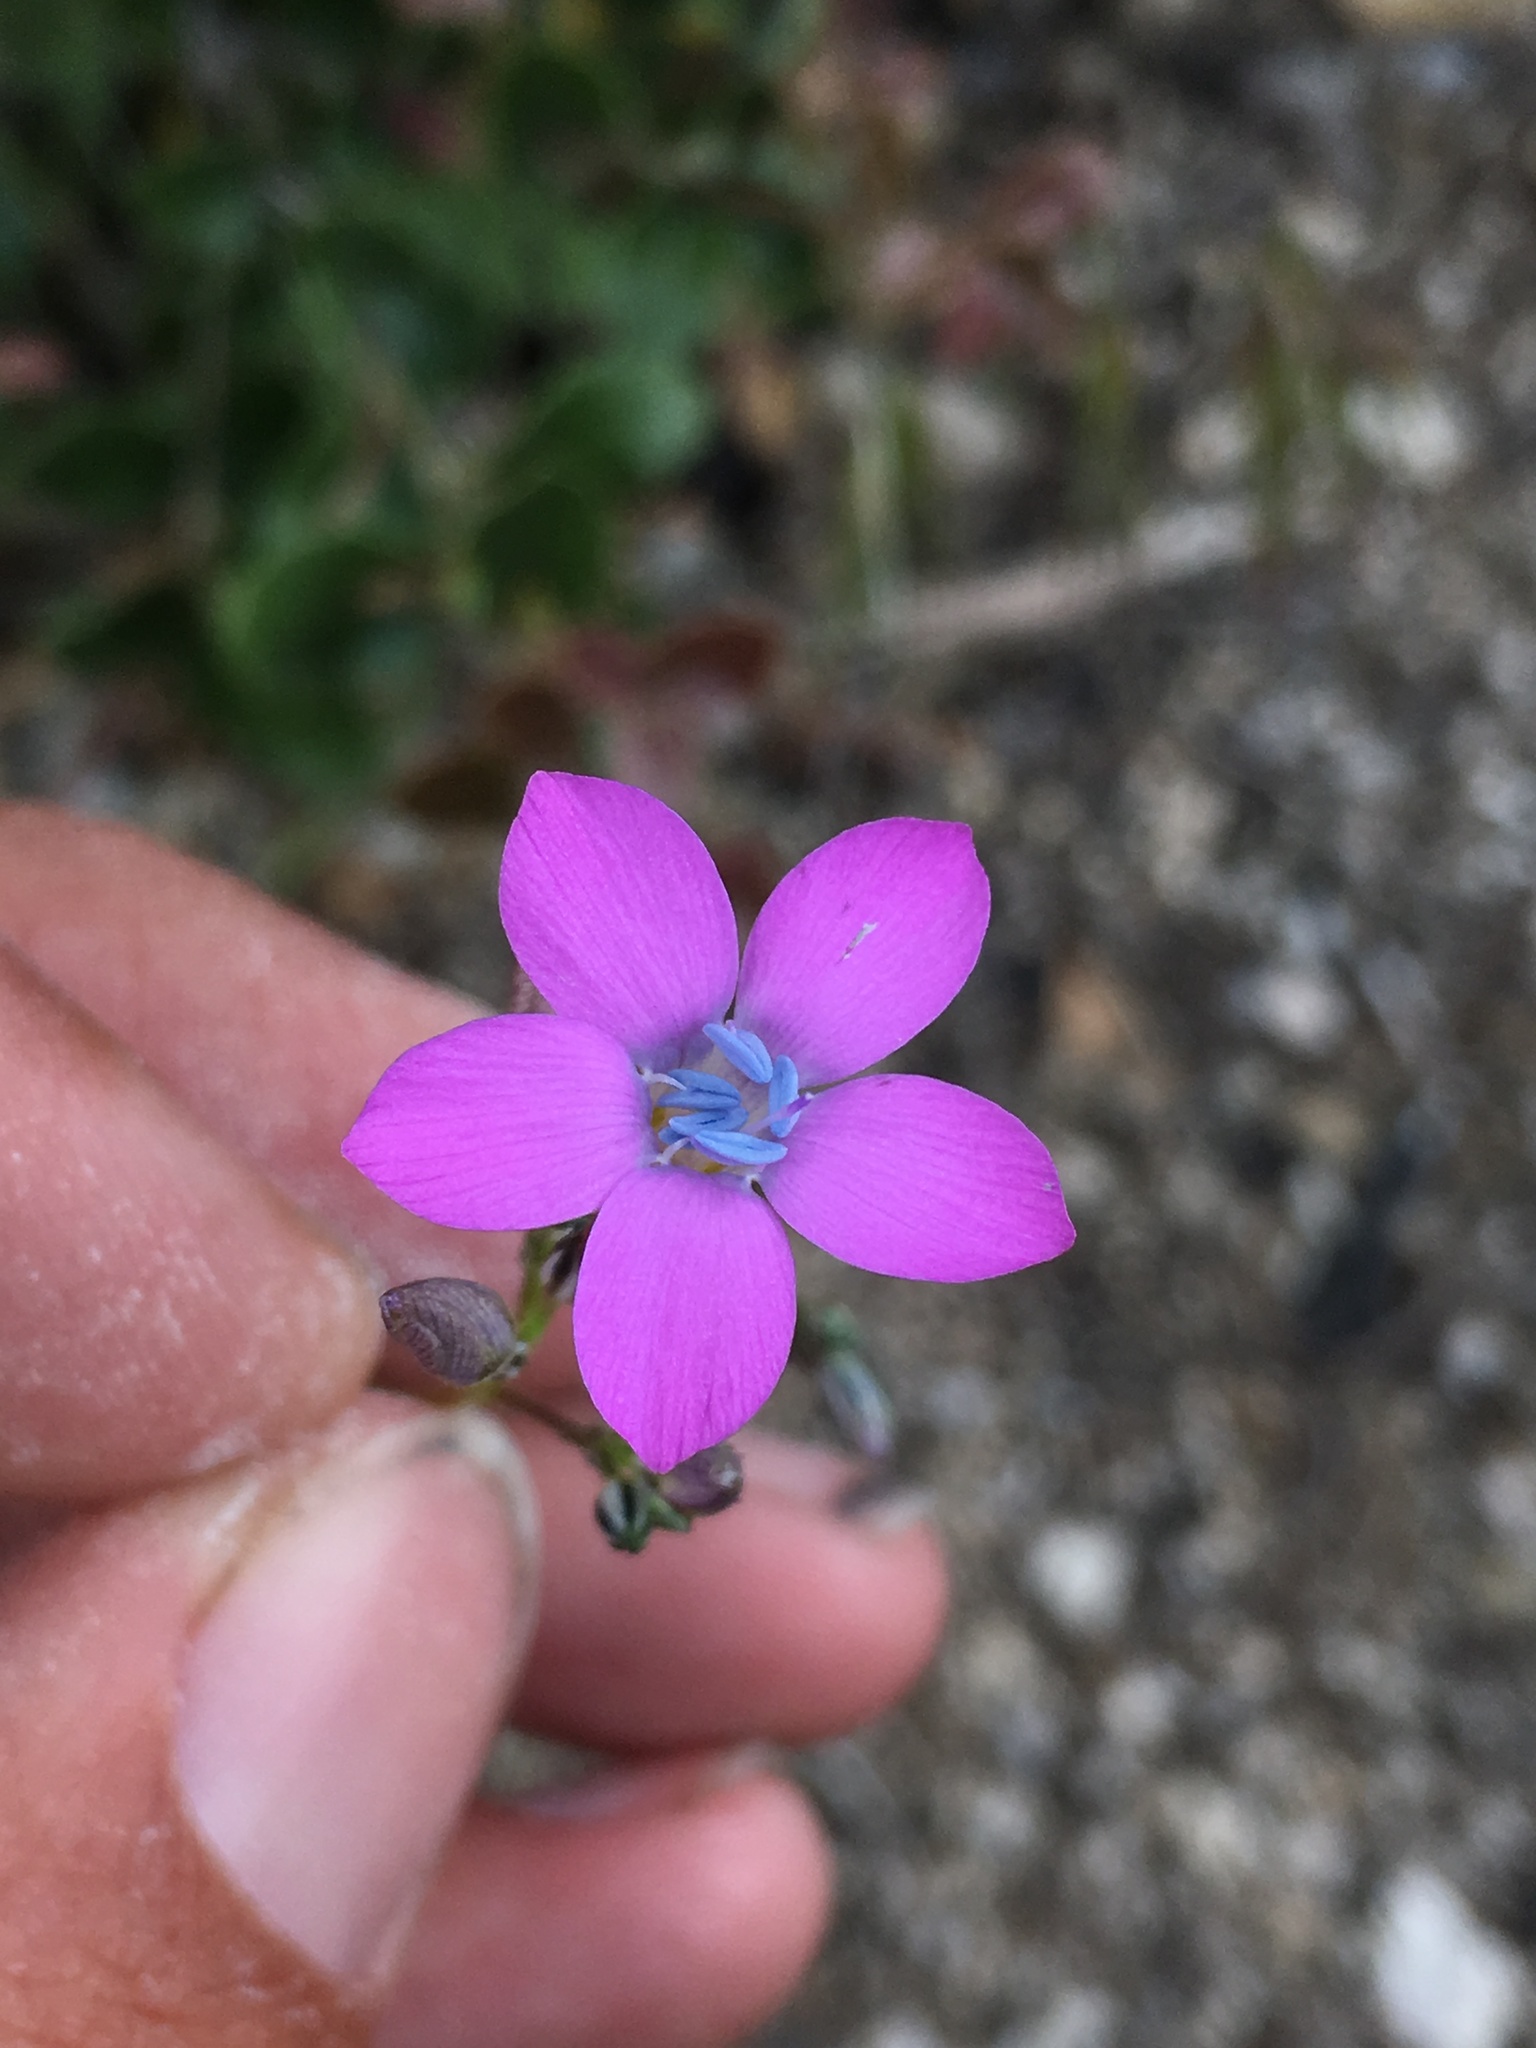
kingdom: Plantae
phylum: Tracheophyta
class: Magnoliopsida
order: Ericales
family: Polemoniaceae
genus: Saltugilia
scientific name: Saltugilia splendens
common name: Grinnell's gilia
